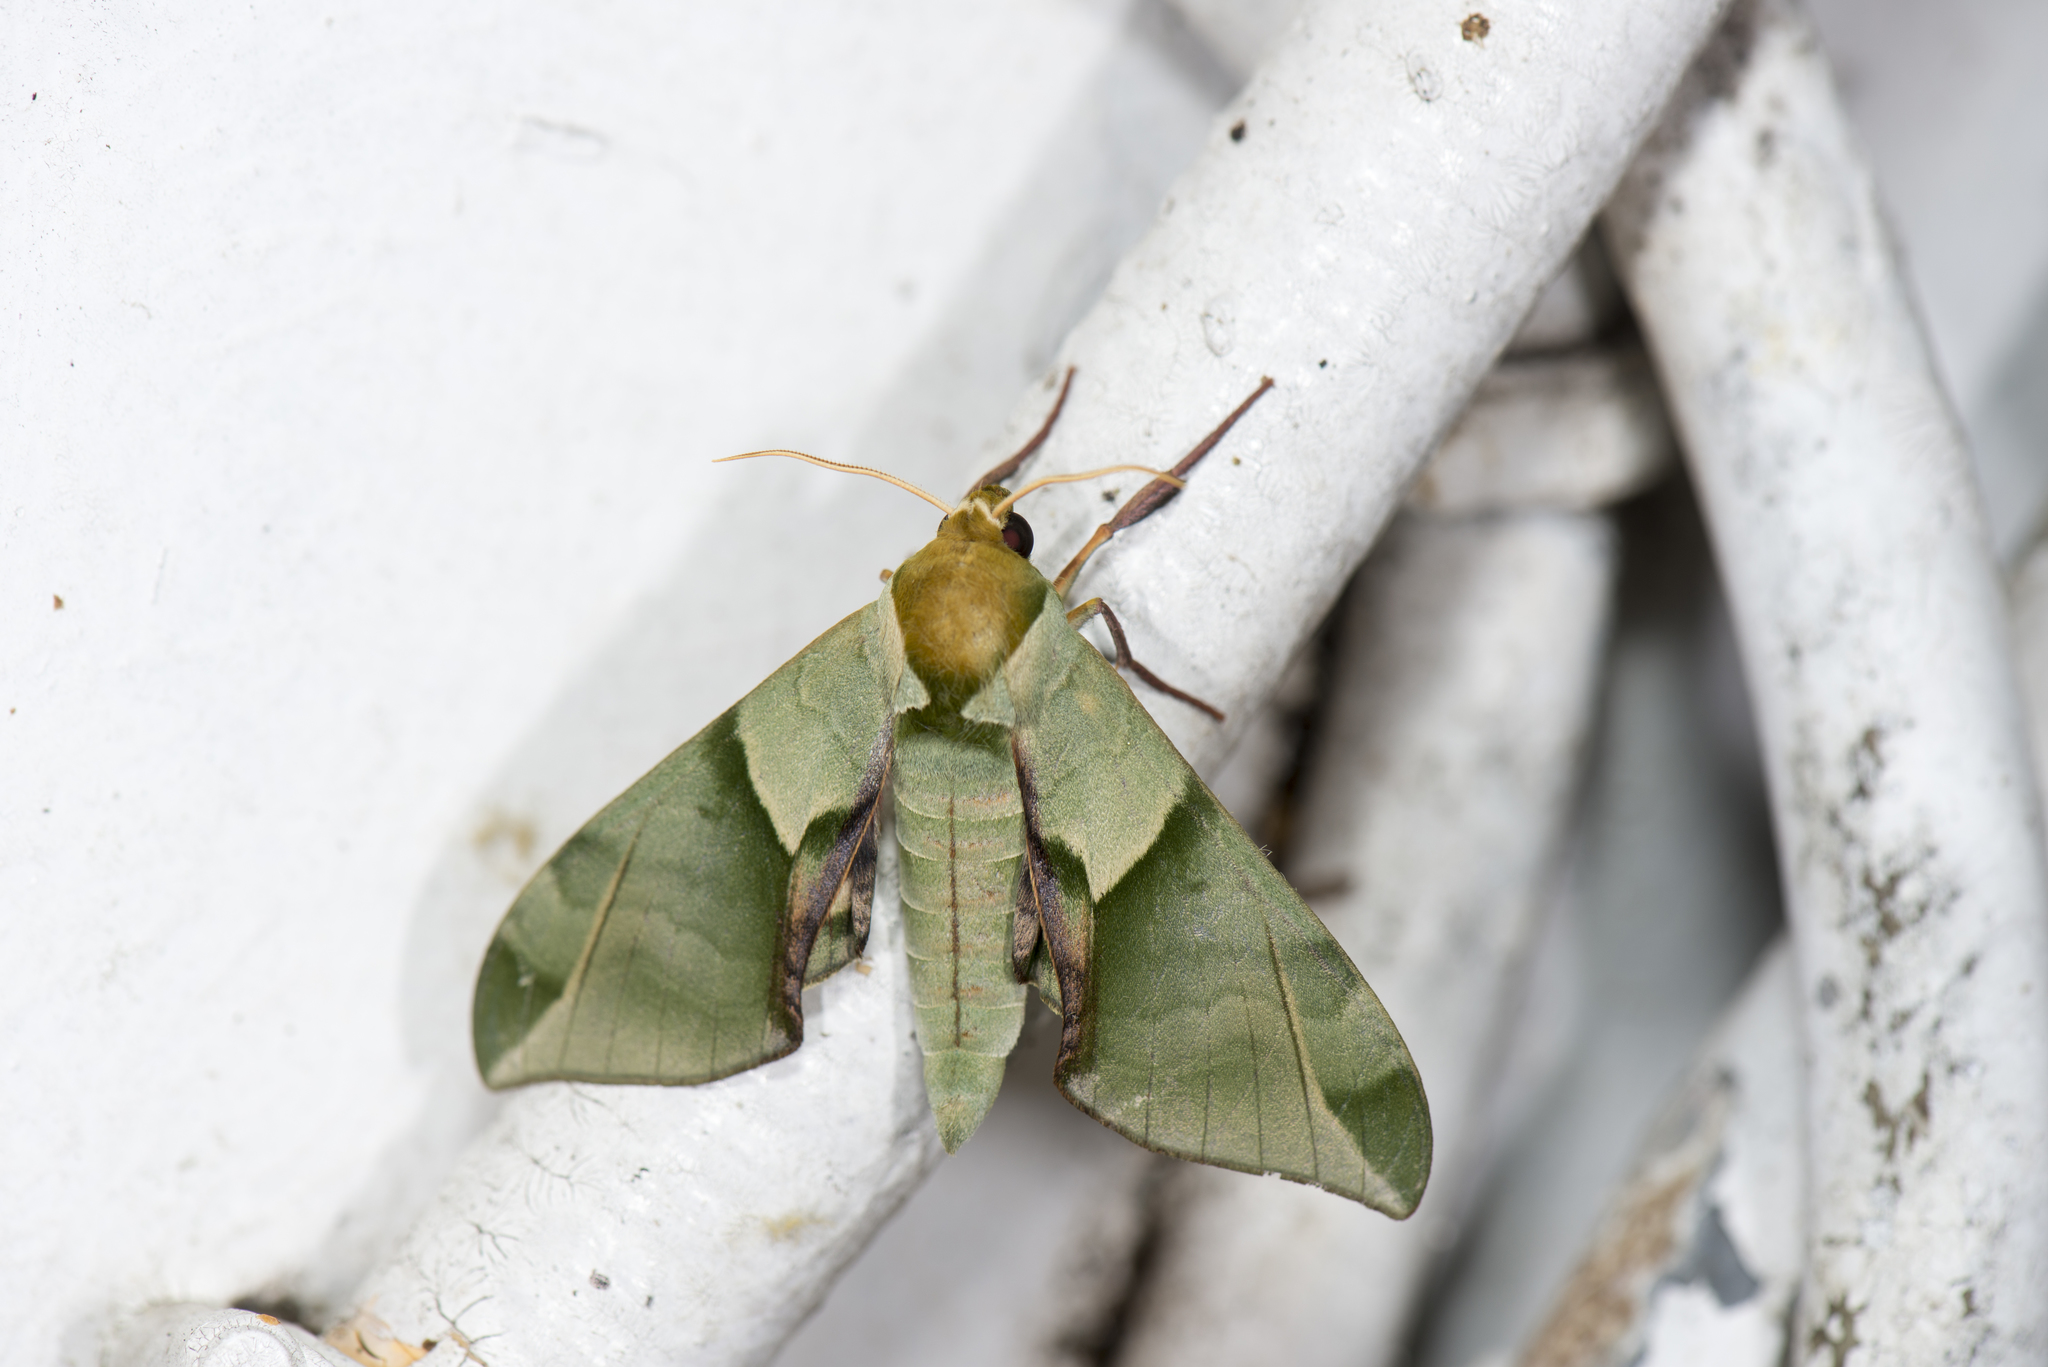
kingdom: Animalia
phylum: Arthropoda
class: Insecta
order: Lepidoptera
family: Sphingidae
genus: Callambulyx
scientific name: Callambulyx tatarinovii
